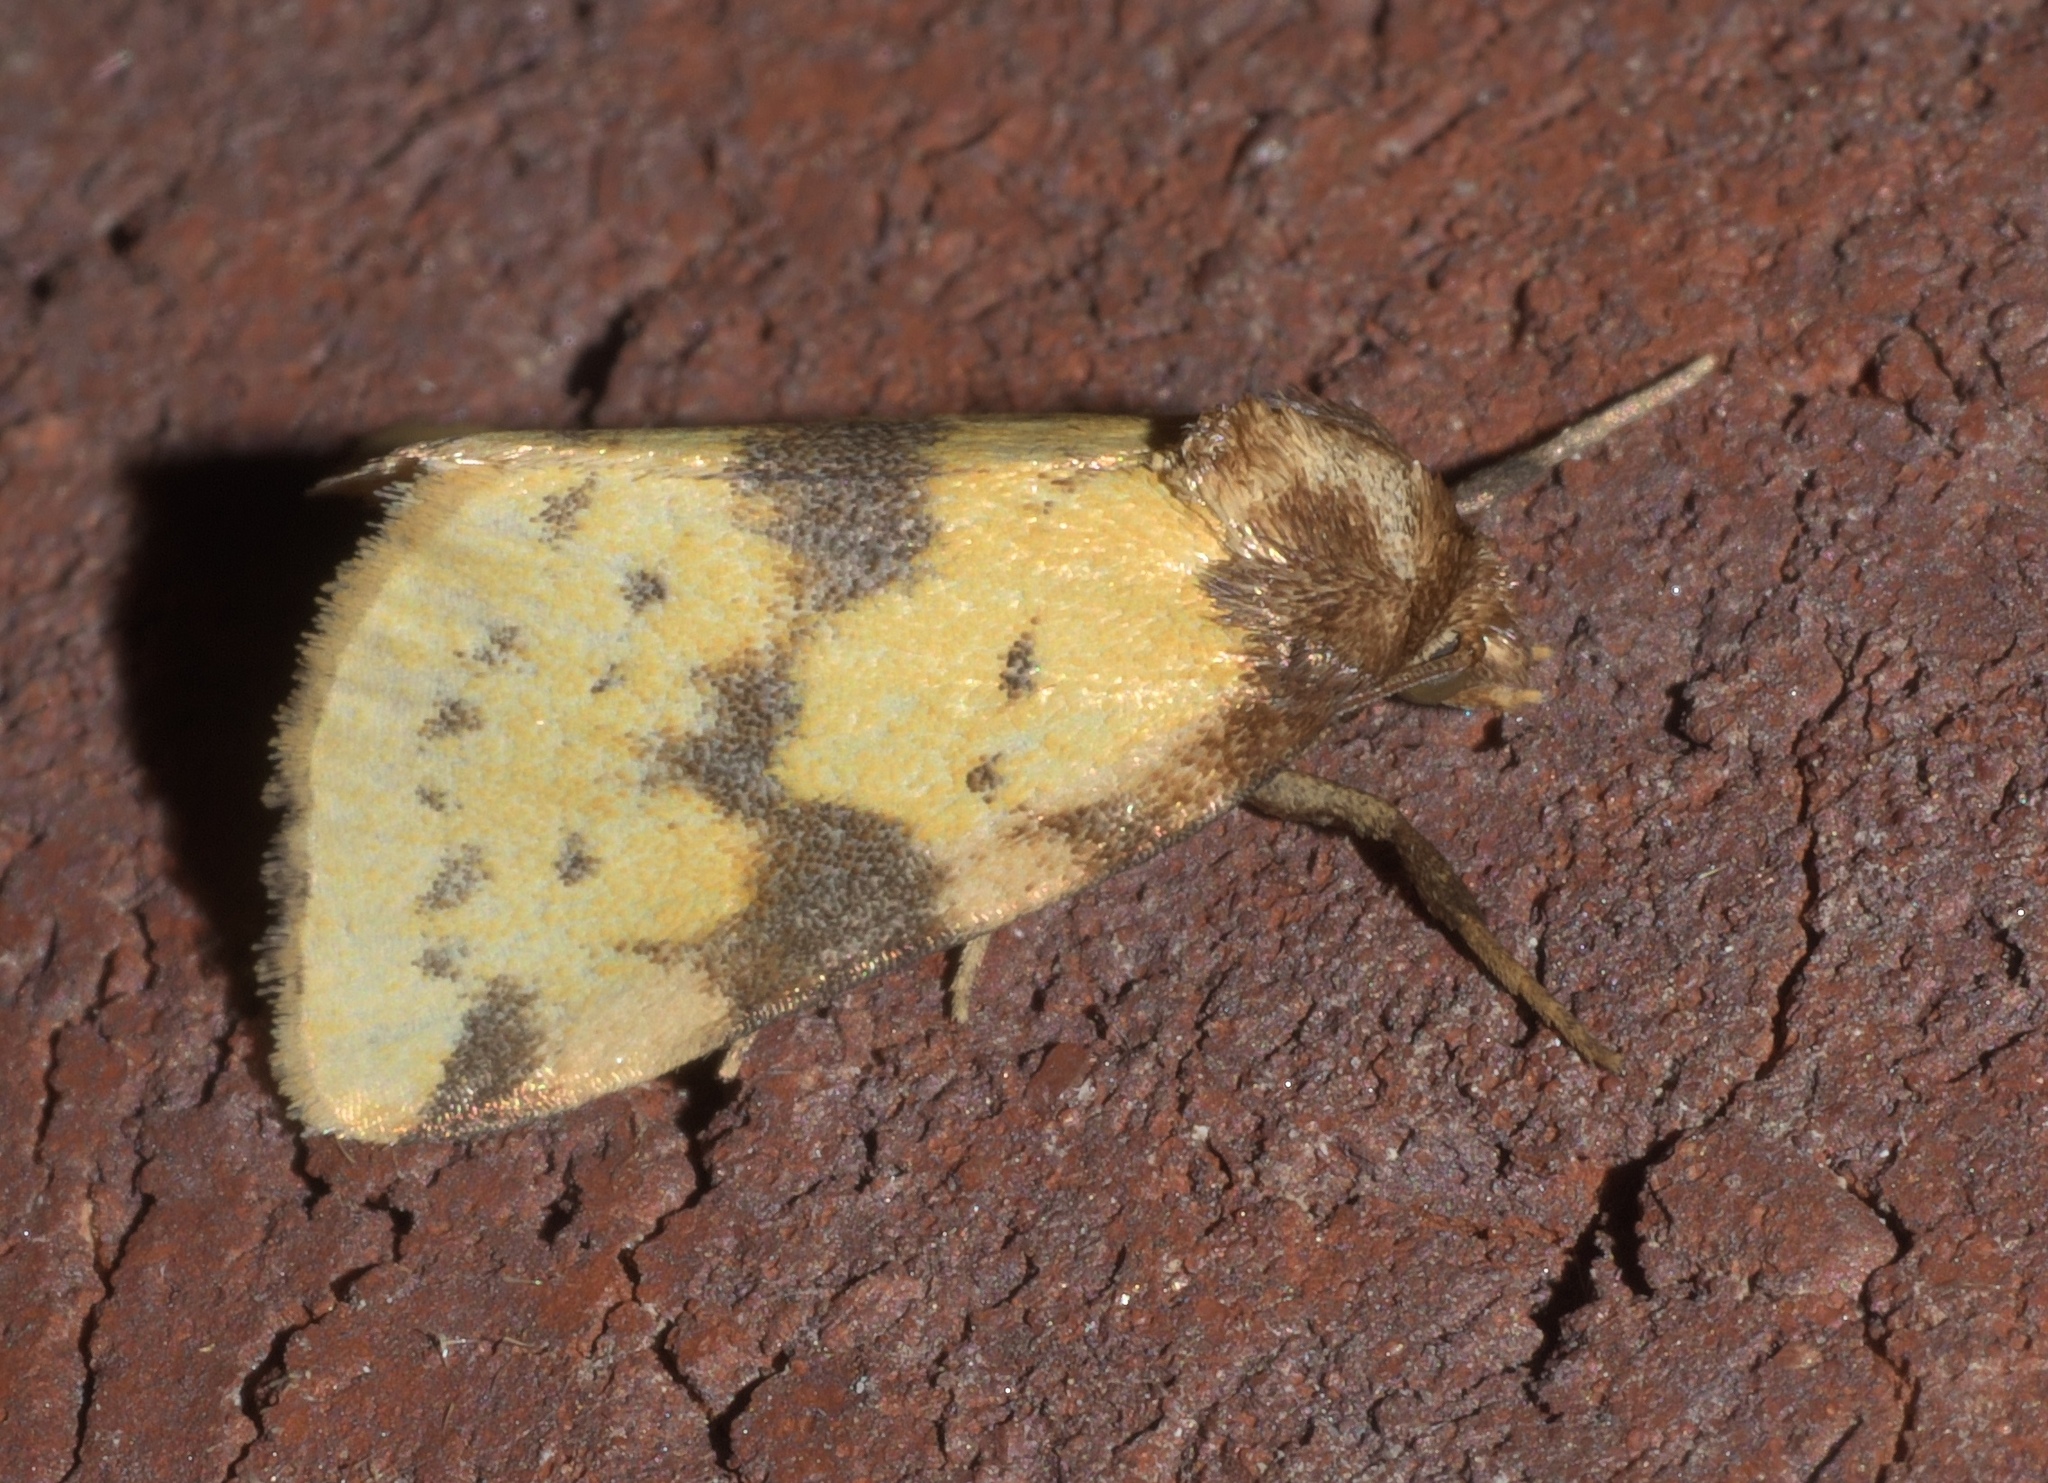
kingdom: Animalia
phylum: Arthropoda
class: Insecta
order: Lepidoptera
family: Noctuidae
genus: Azenia
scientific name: Azenia obtusa
